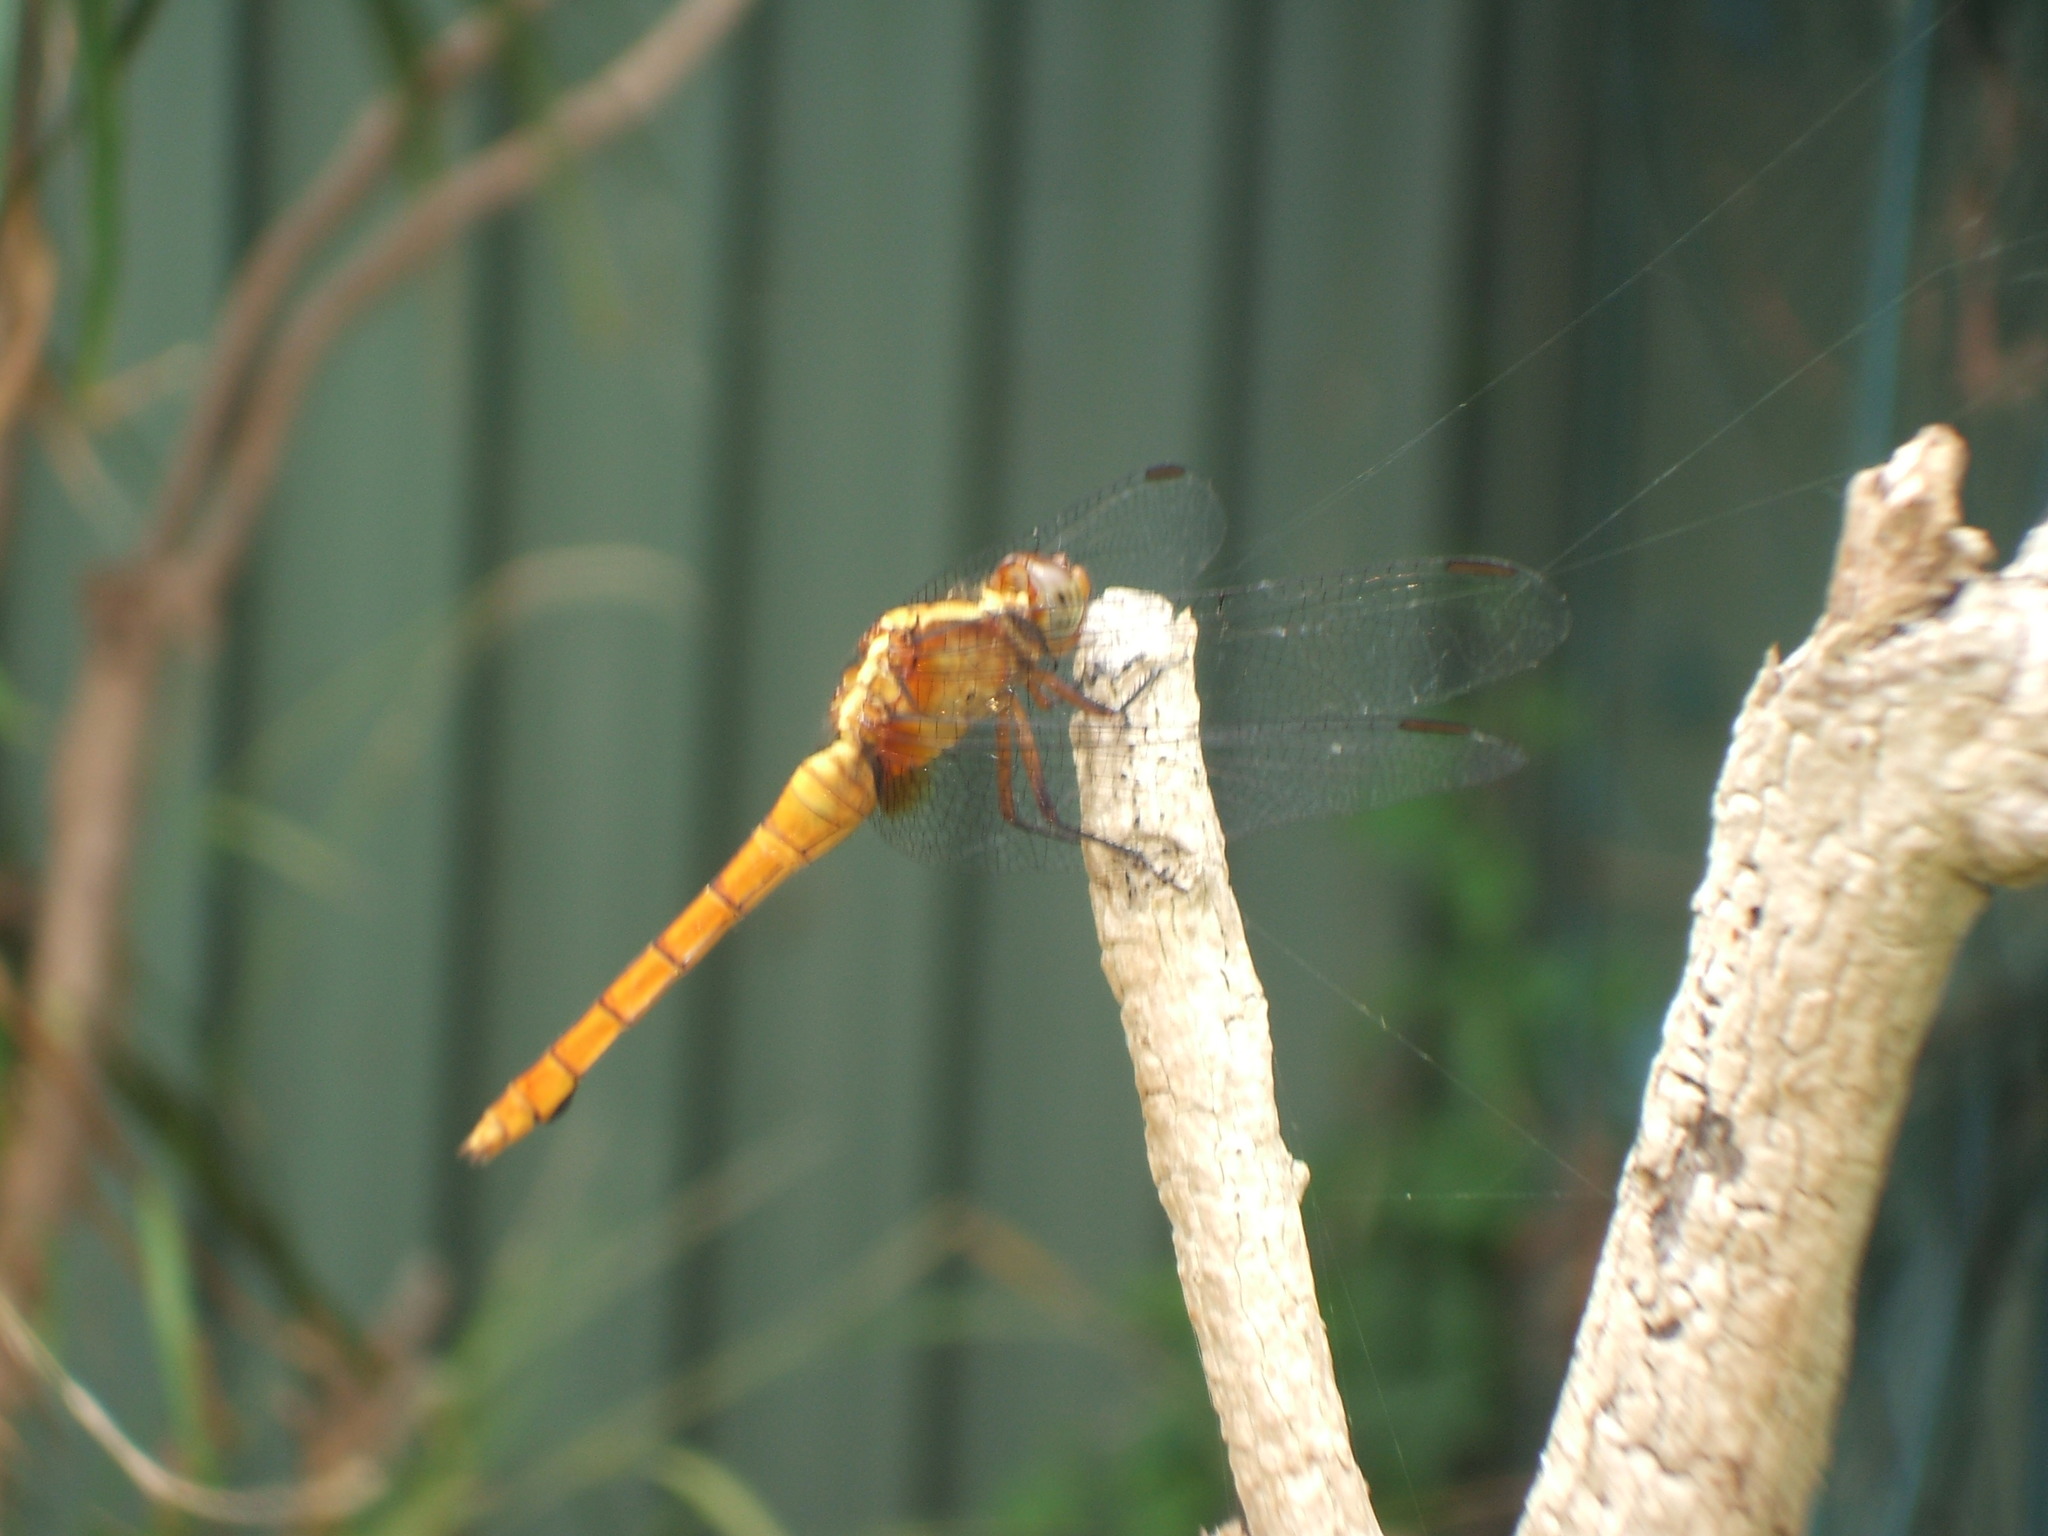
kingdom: Animalia
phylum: Arthropoda
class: Insecta
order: Odonata
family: Libellulidae
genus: Orthetrum
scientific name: Orthetrum villosovittatum
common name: Firery skimmer
